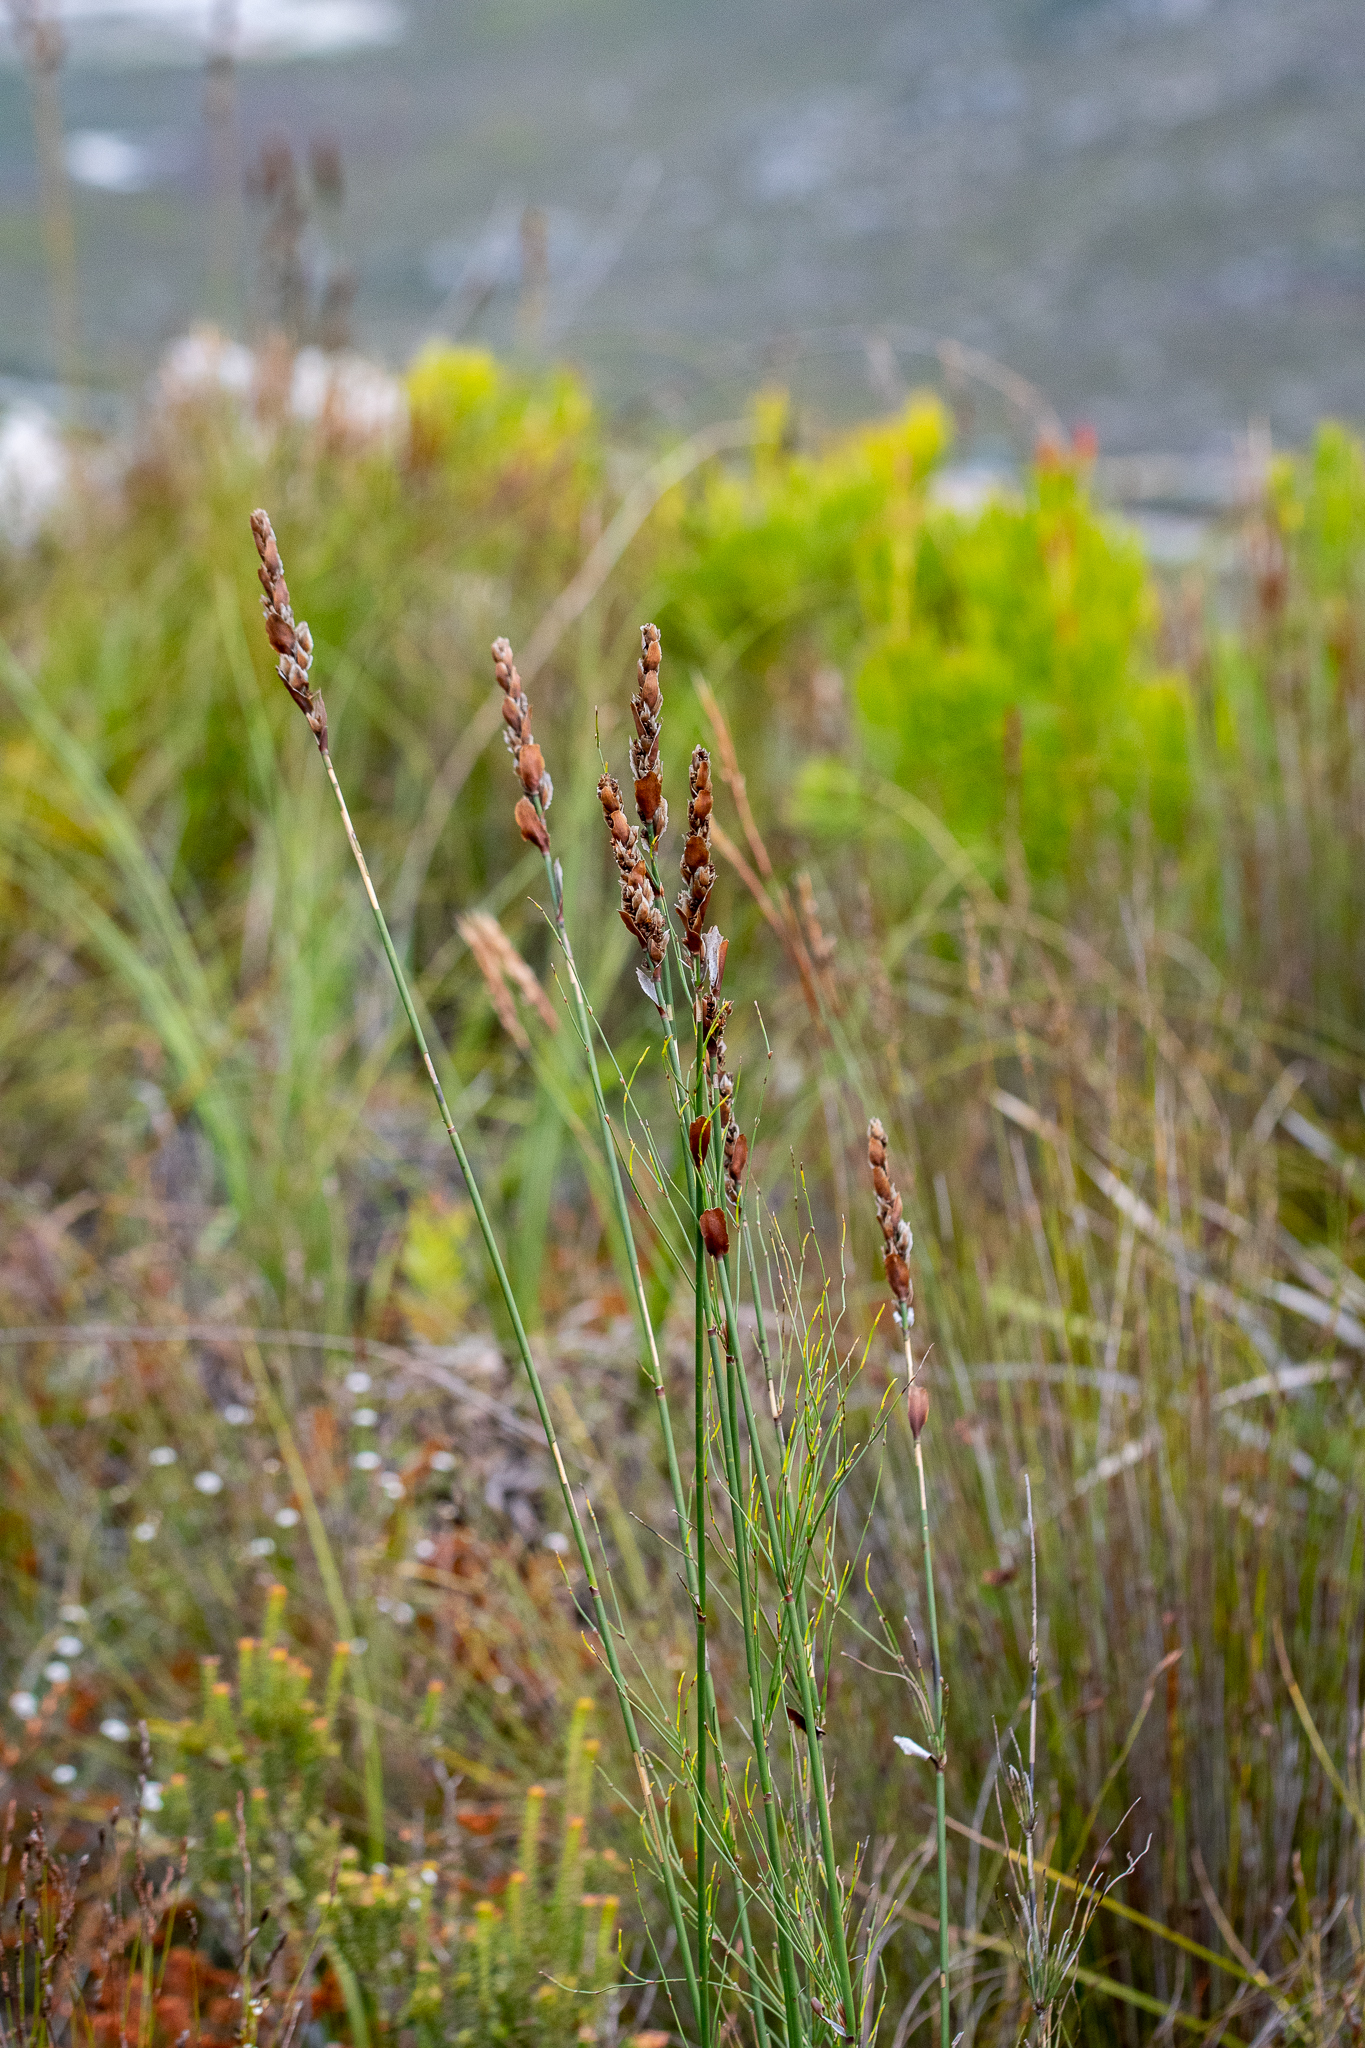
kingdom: Plantae
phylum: Tracheophyta
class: Liliopsida
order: Poales
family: Restionaceae
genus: Elegia
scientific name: Elegia equisetacea
